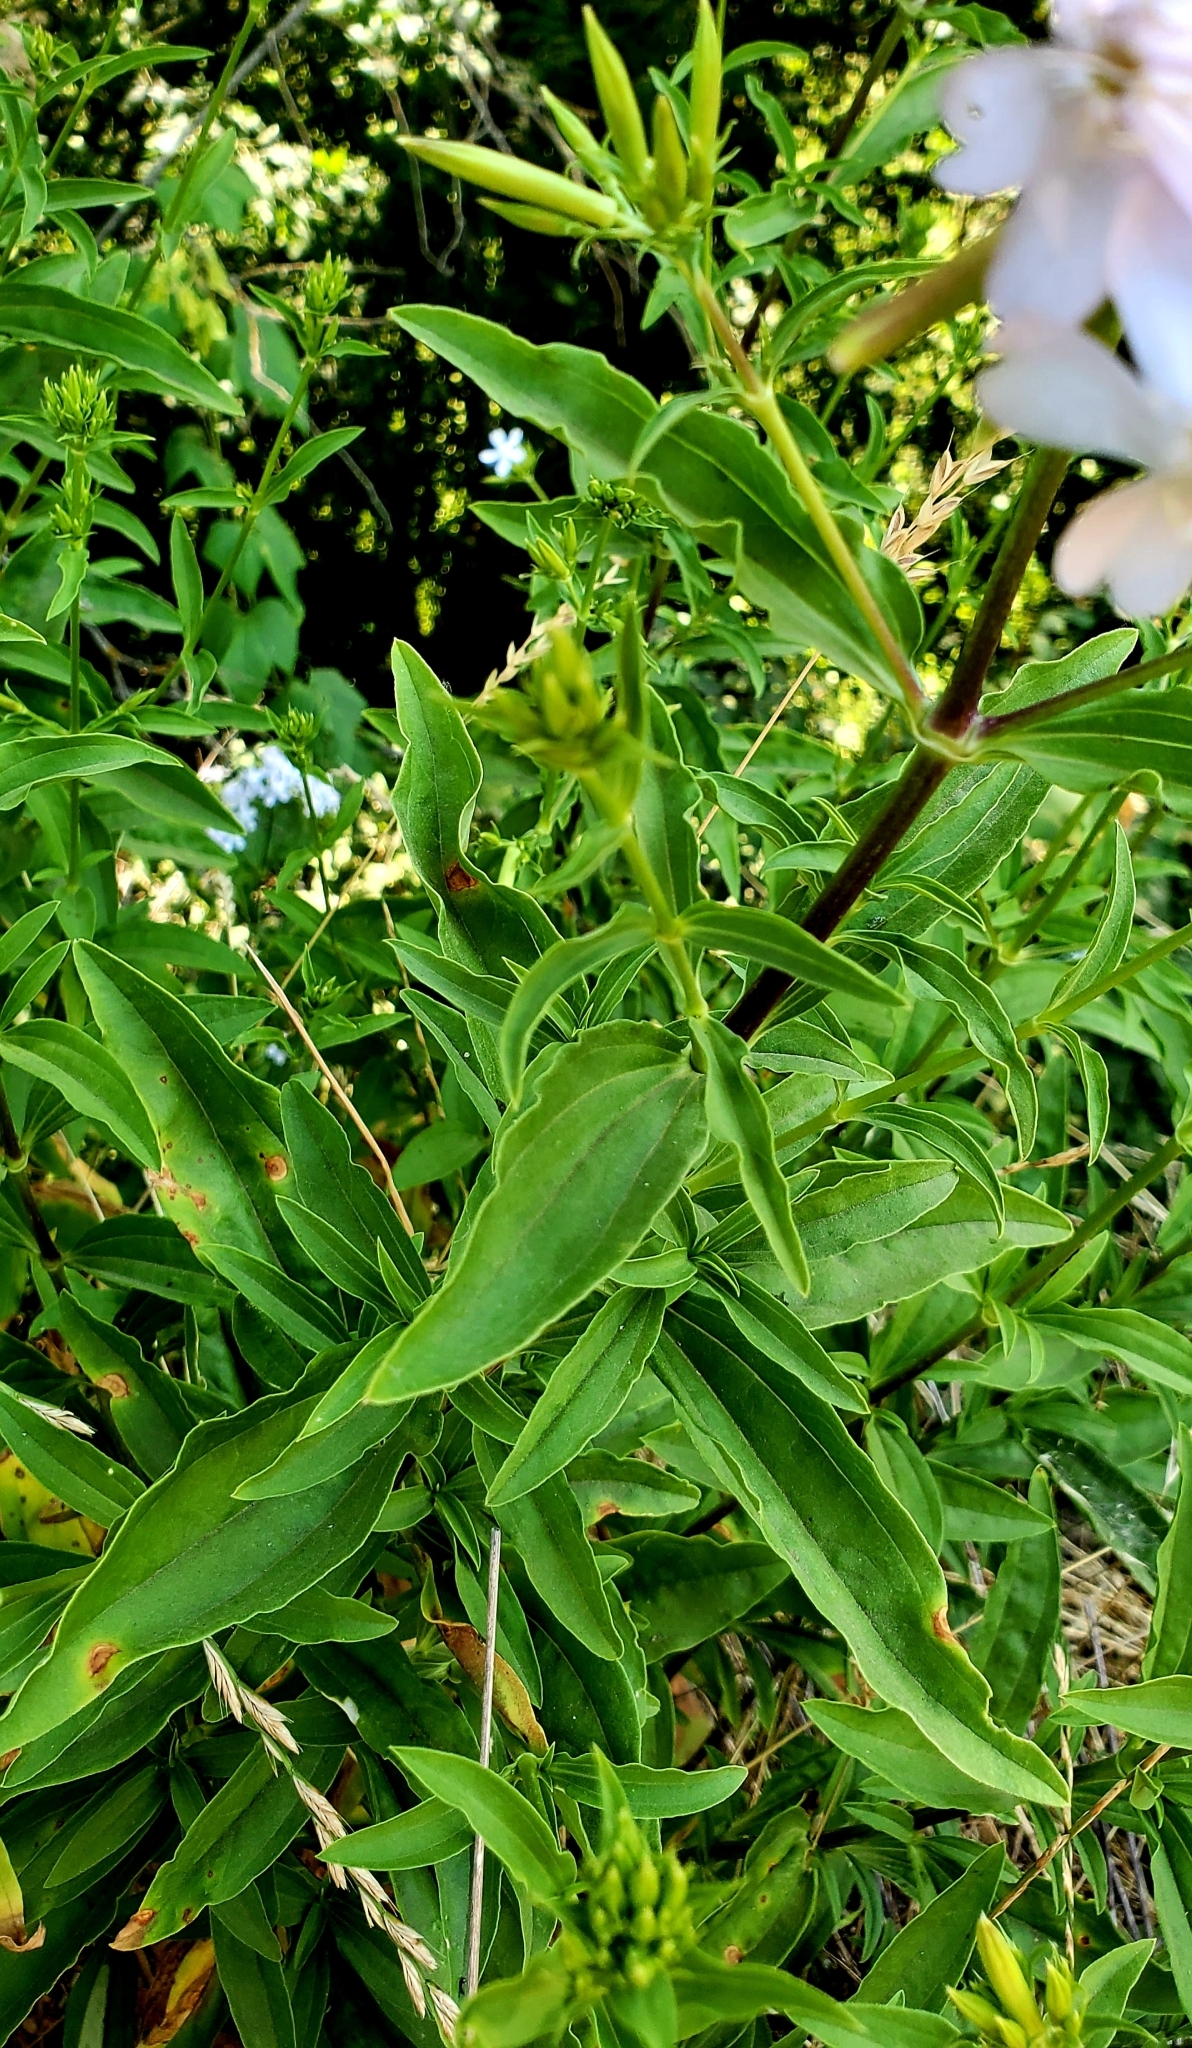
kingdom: Plantae
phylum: Tracheophyta
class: Magnoliopsida
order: Caryophyllales
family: Caryophyllaceae
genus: Saponaria
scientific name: Saponaria officinalis
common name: Soapwort
